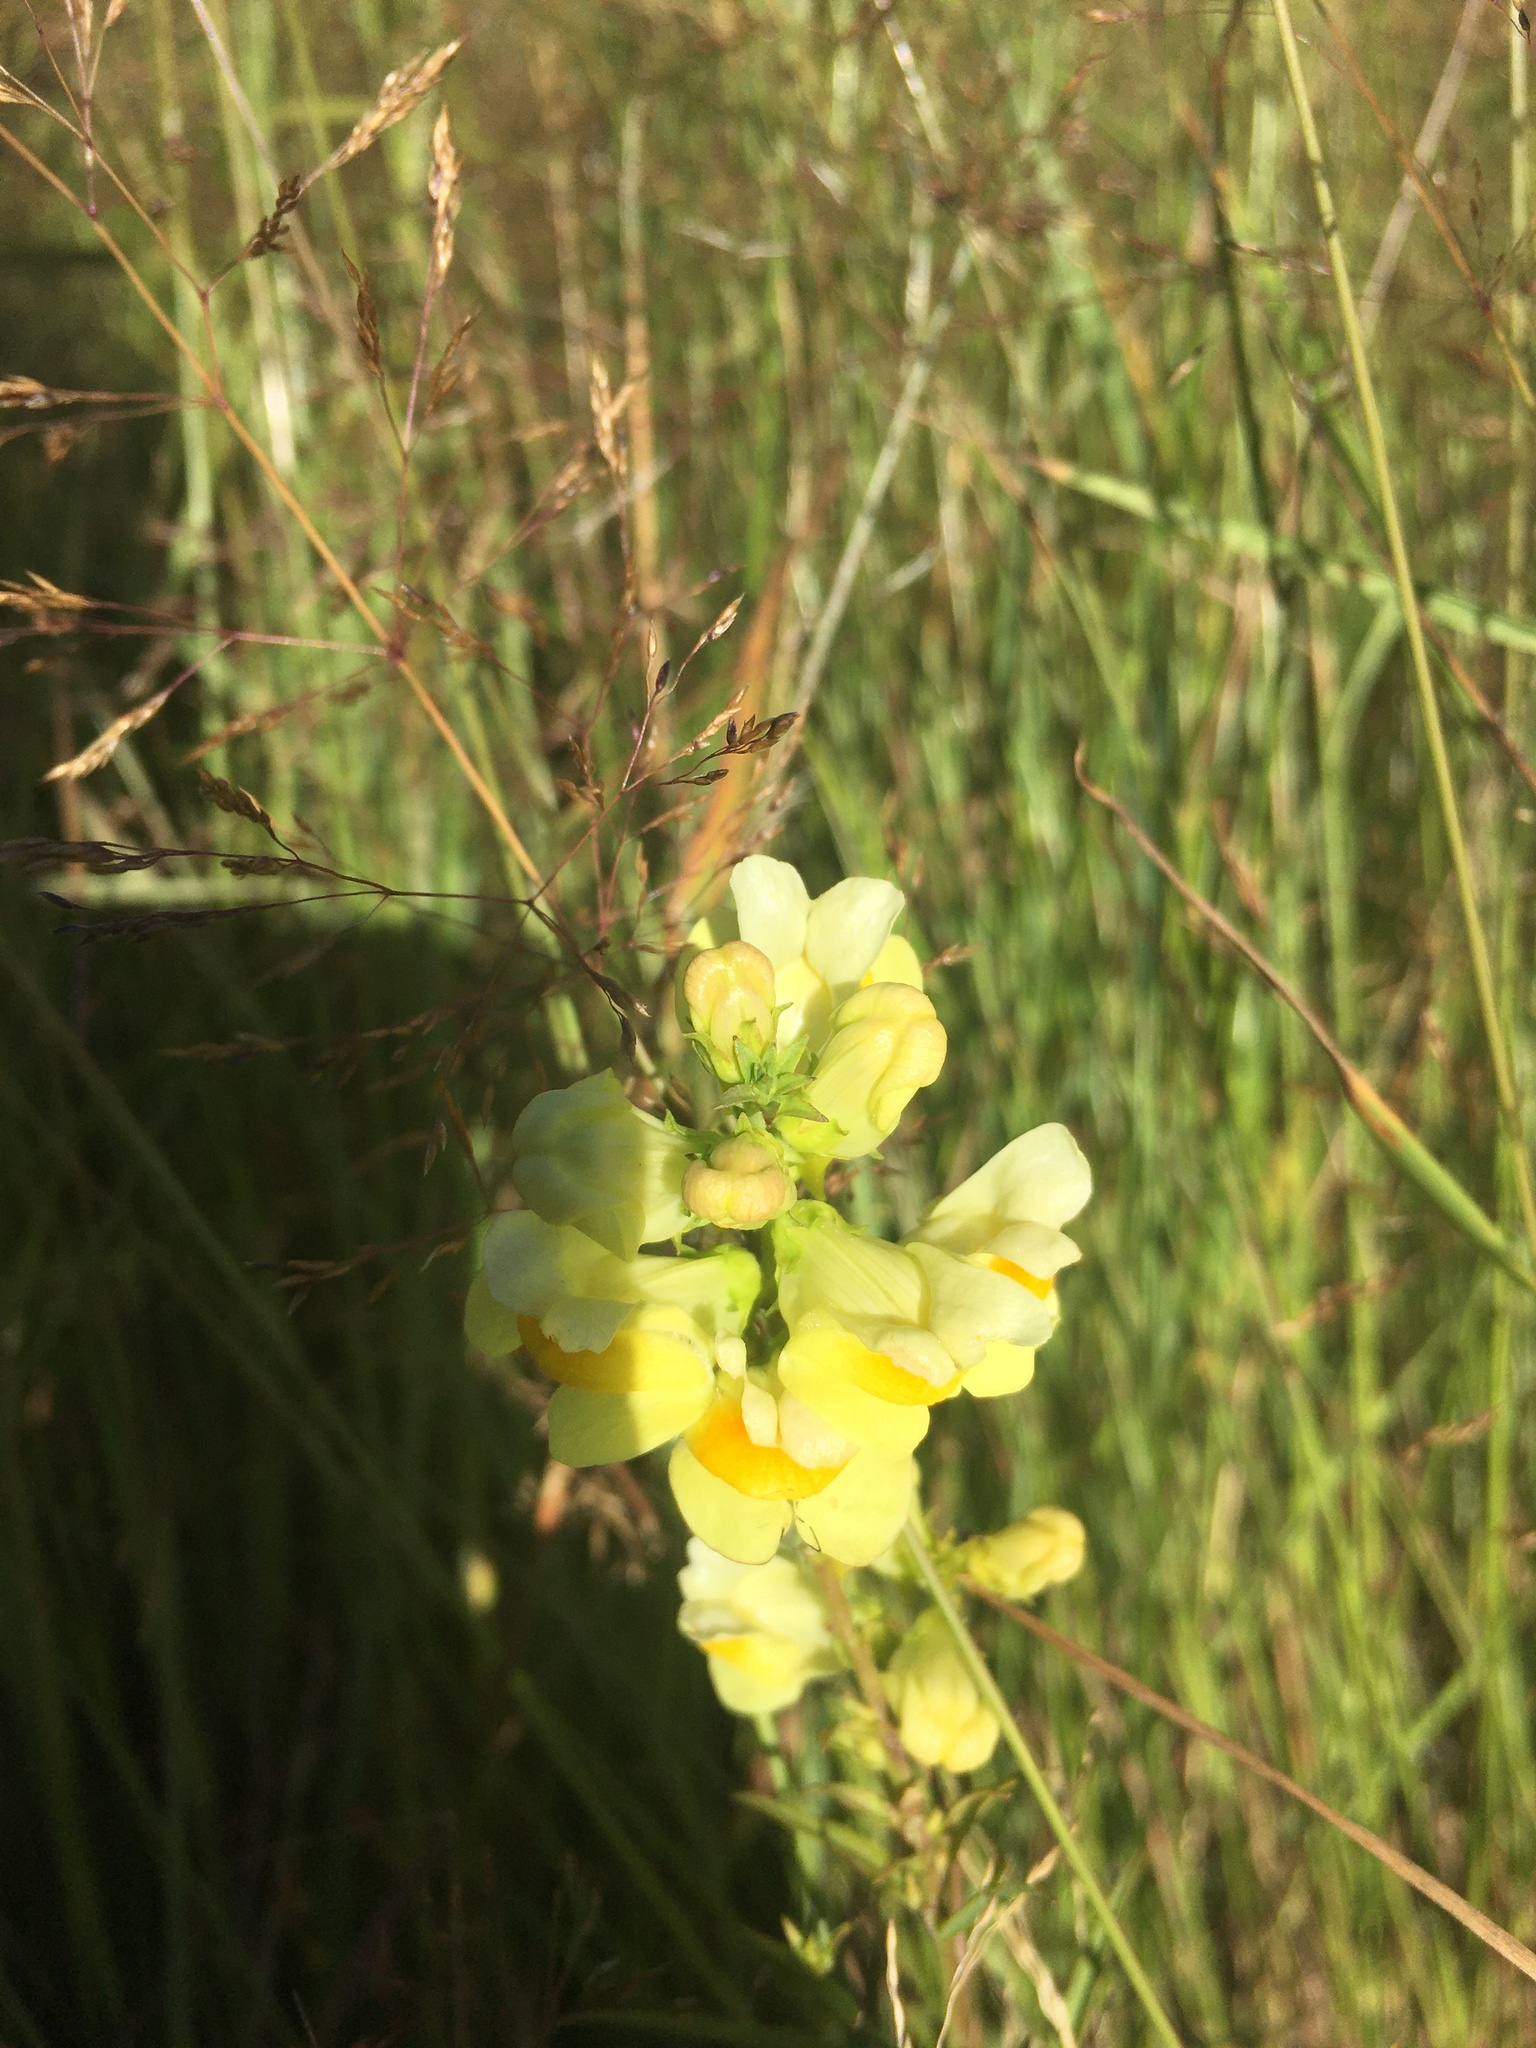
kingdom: Plantae
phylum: Tracheophyta
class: Magnoliopsida
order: Lamiales
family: Plantaginaceae
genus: Linaria
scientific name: Linaria vulgaris
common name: Butter and eggs
